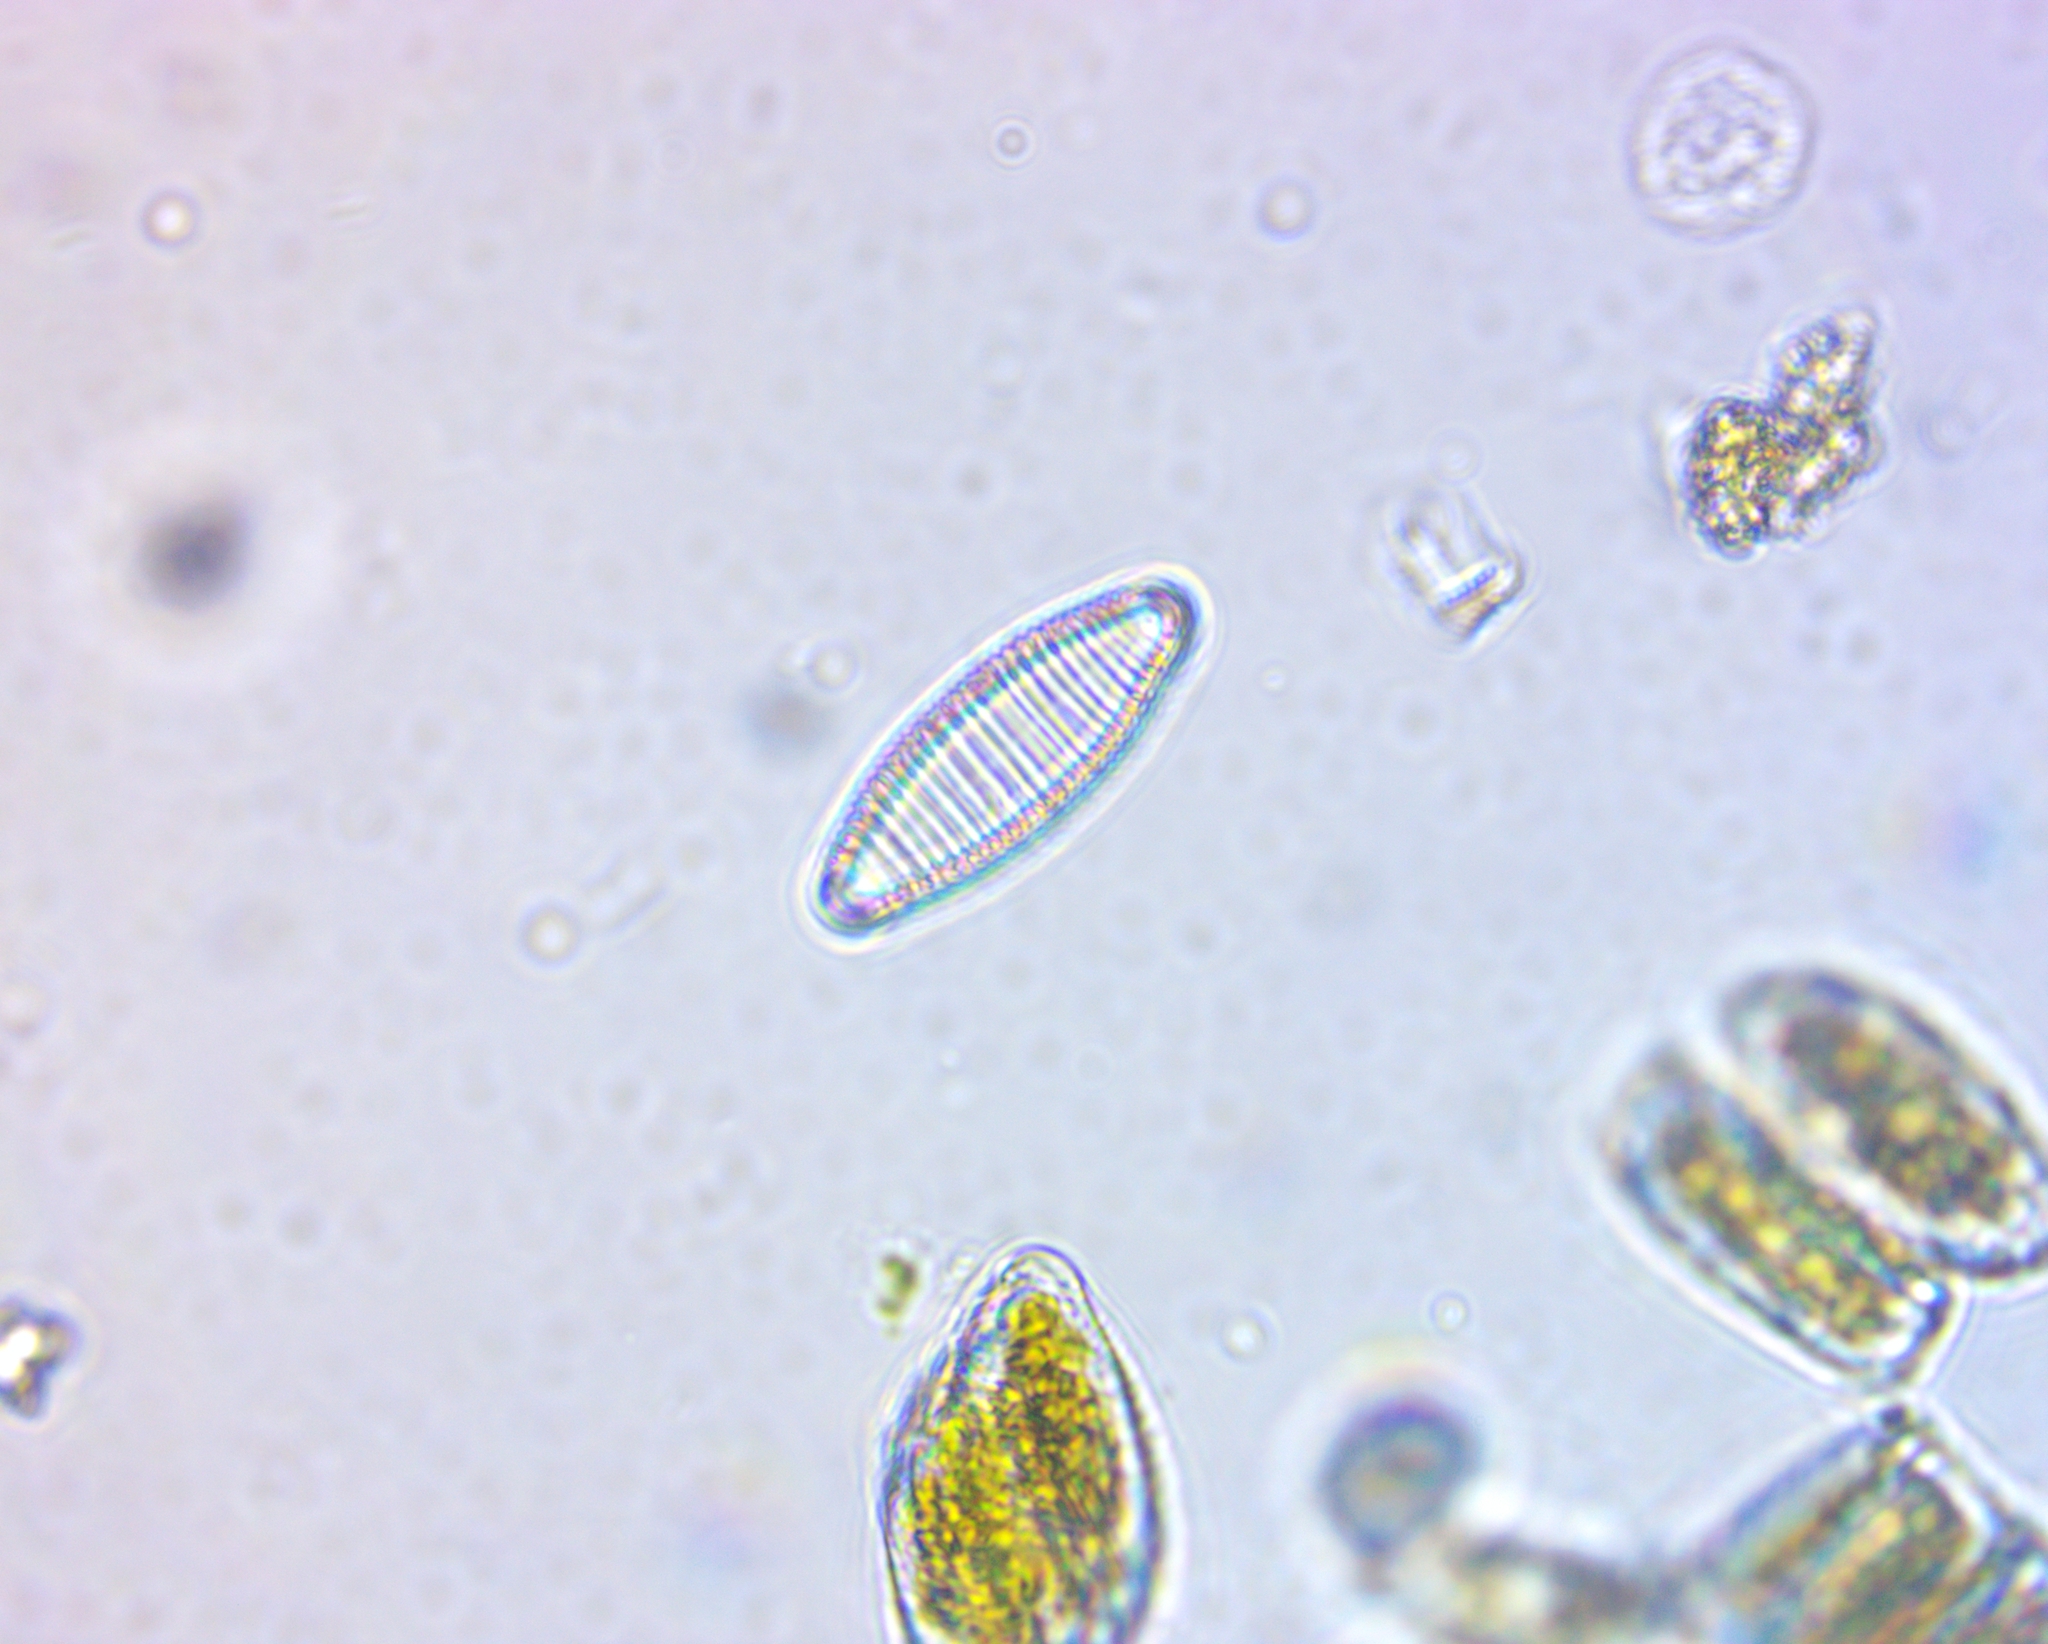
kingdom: Chromista
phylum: Ochrophyta
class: Bacillariophyceae
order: Fragilariales
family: Fragilariaceae
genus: Diatoma
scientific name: Diatoma vulgaris
